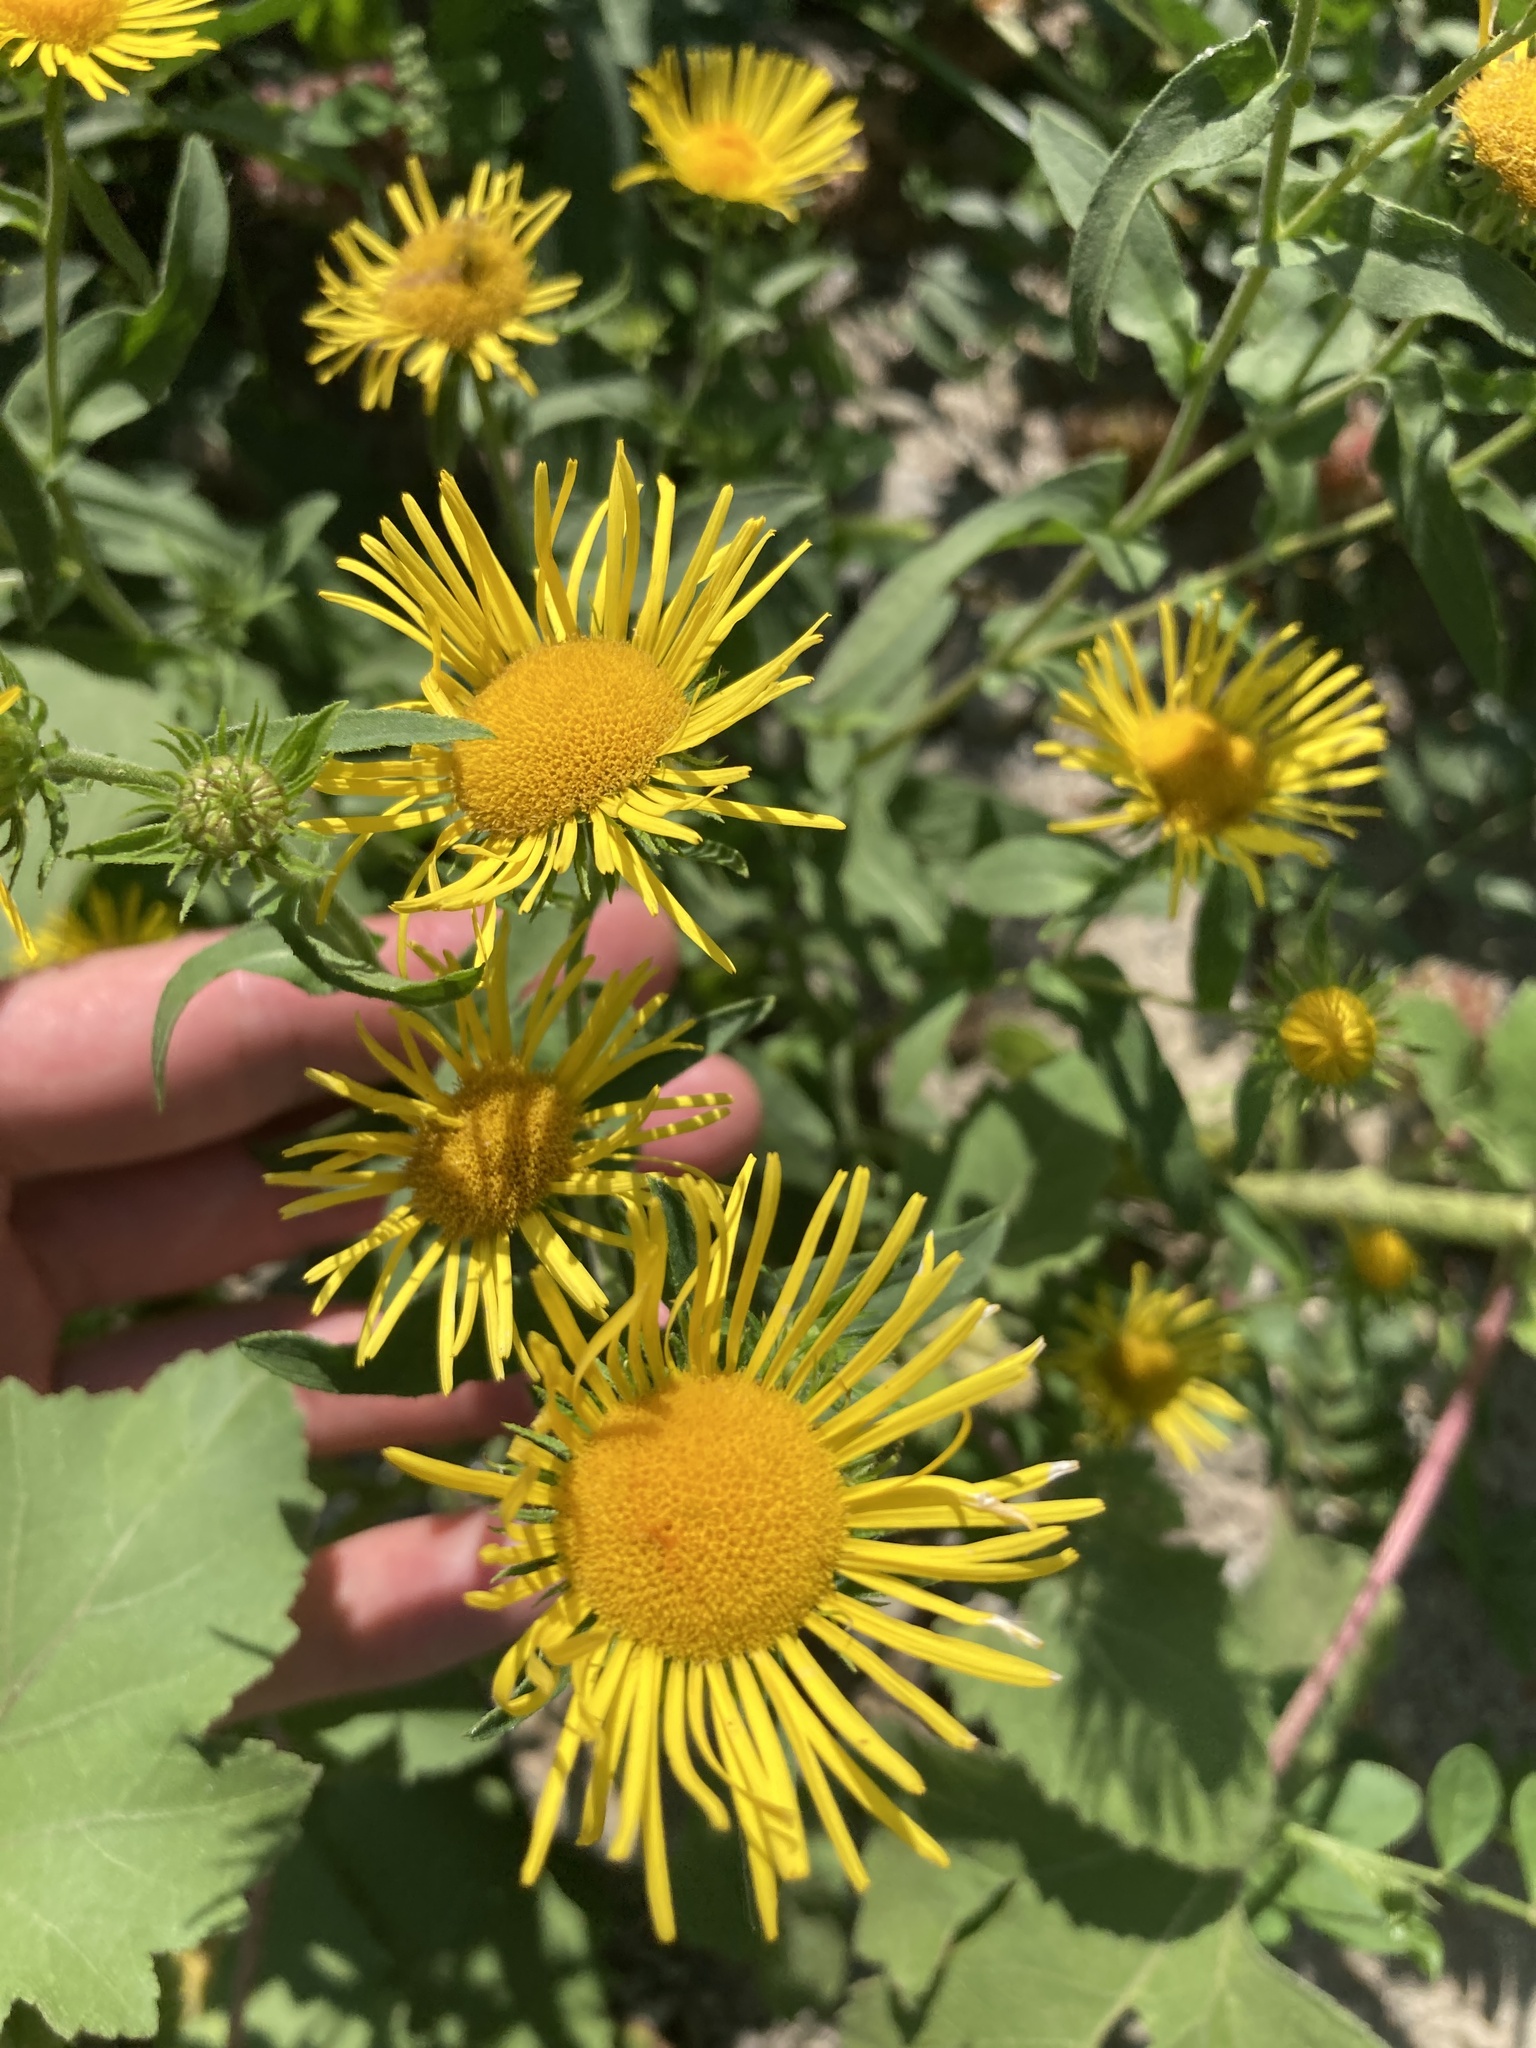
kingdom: Plantae
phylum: Tracheophyta
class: Magnoliopsida
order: Asterales
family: Asteraceae
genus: Pentanema
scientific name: Pentanema britannicum
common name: British elecampane
